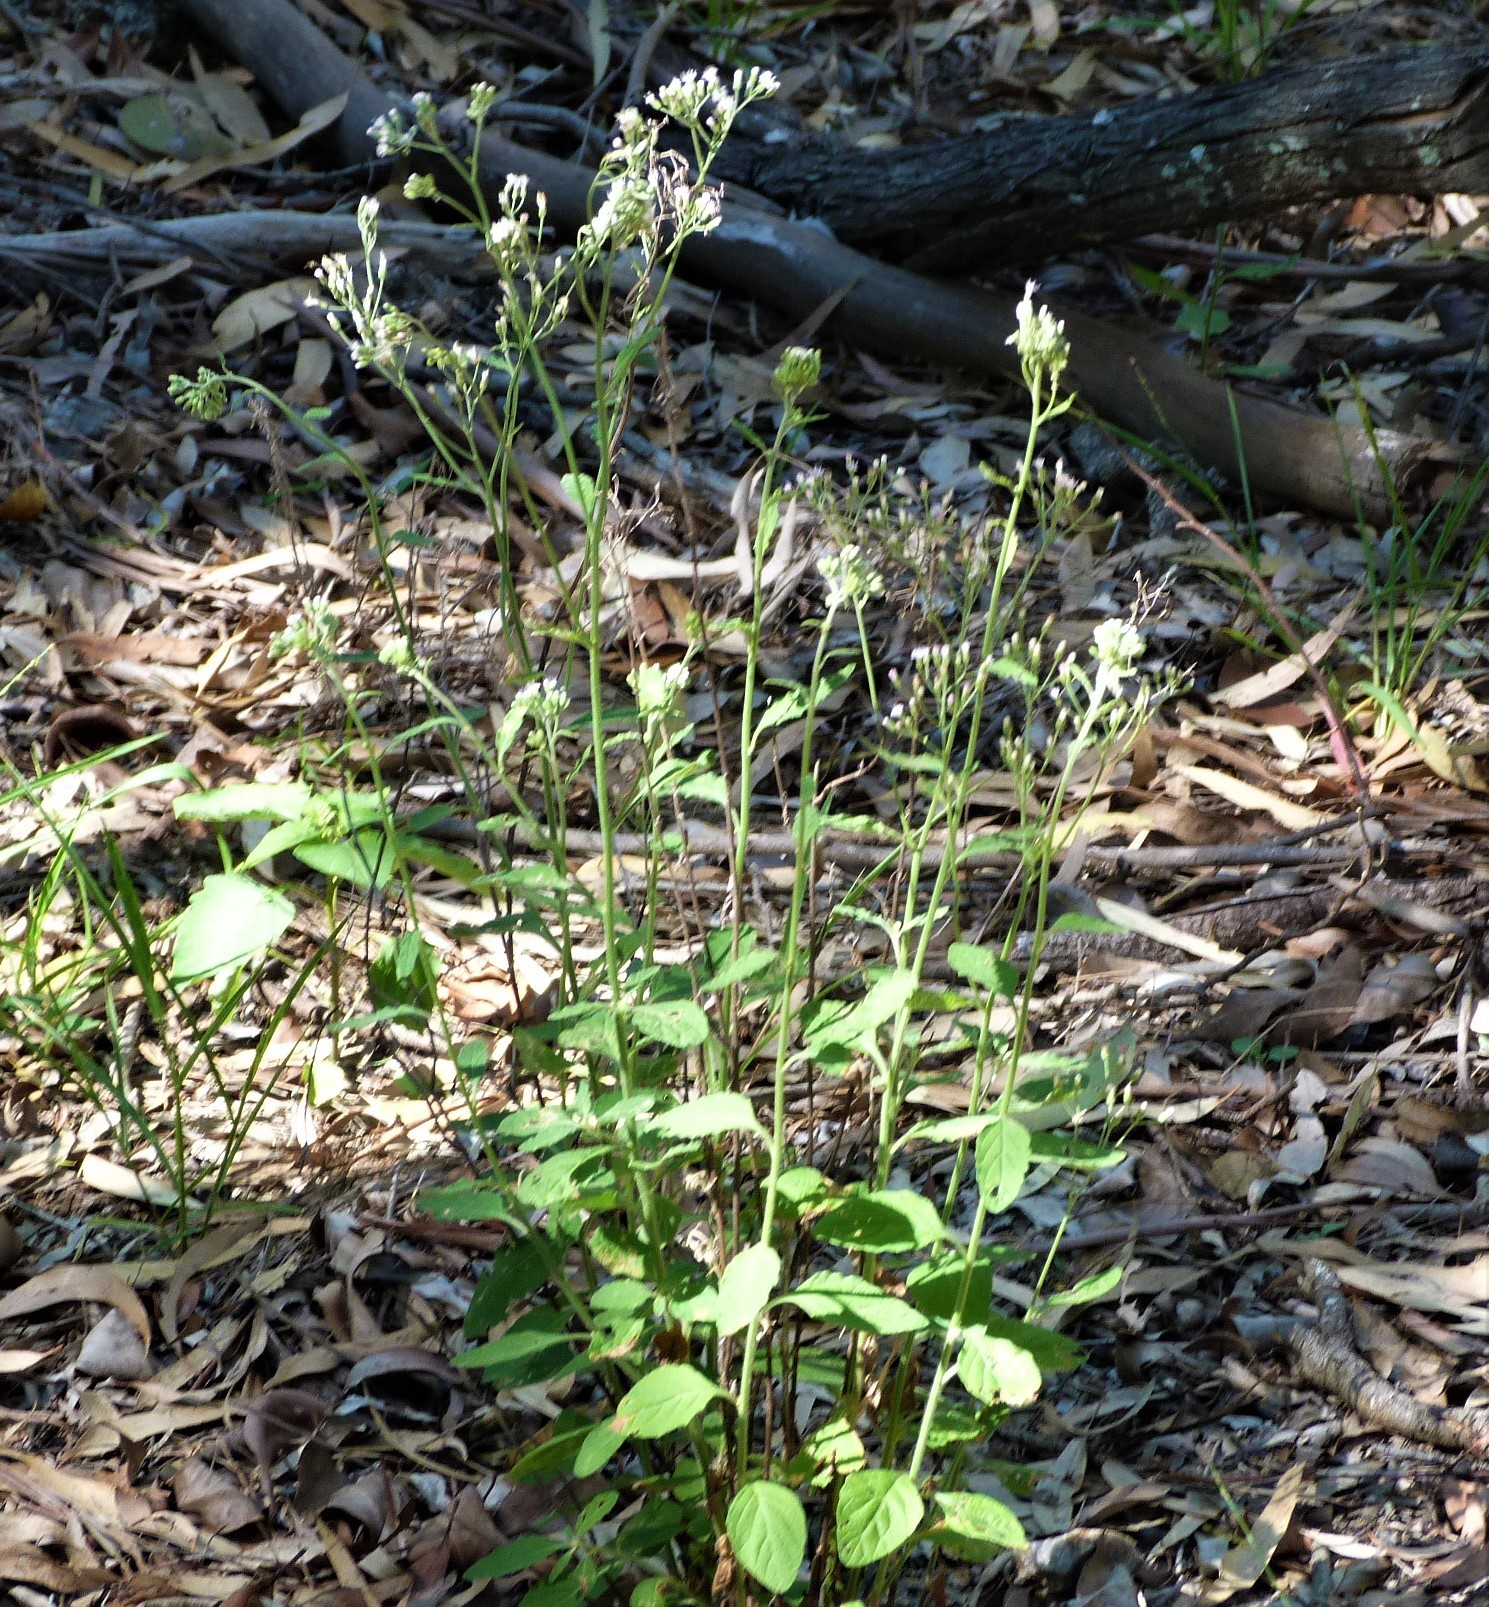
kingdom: Plantae
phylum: Tracheophyta
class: Magnoliopsida
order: Asterales
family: Asteraceae
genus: Cyanthillium
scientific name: Cyanthillium cinereum
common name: Little ironweed
